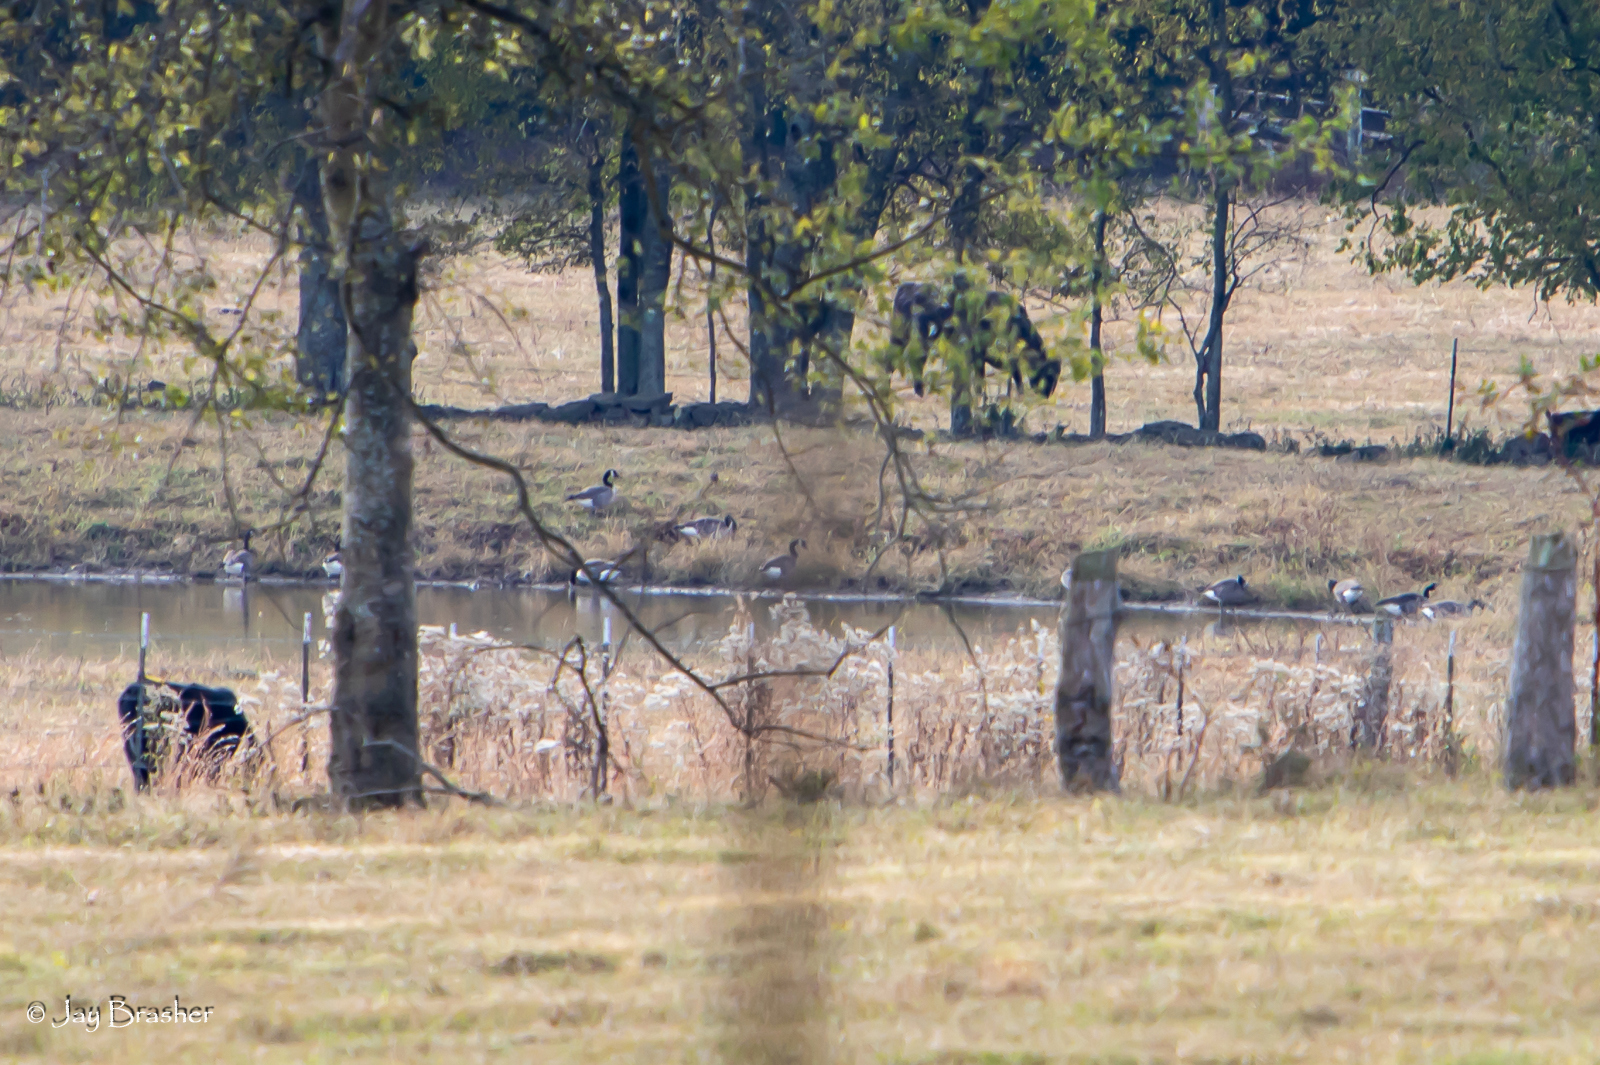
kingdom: Animalia
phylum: Chordata
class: Aves
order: Anseriformes
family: Anatidae
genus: Branta
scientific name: Branta canadensis
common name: Canada goose
